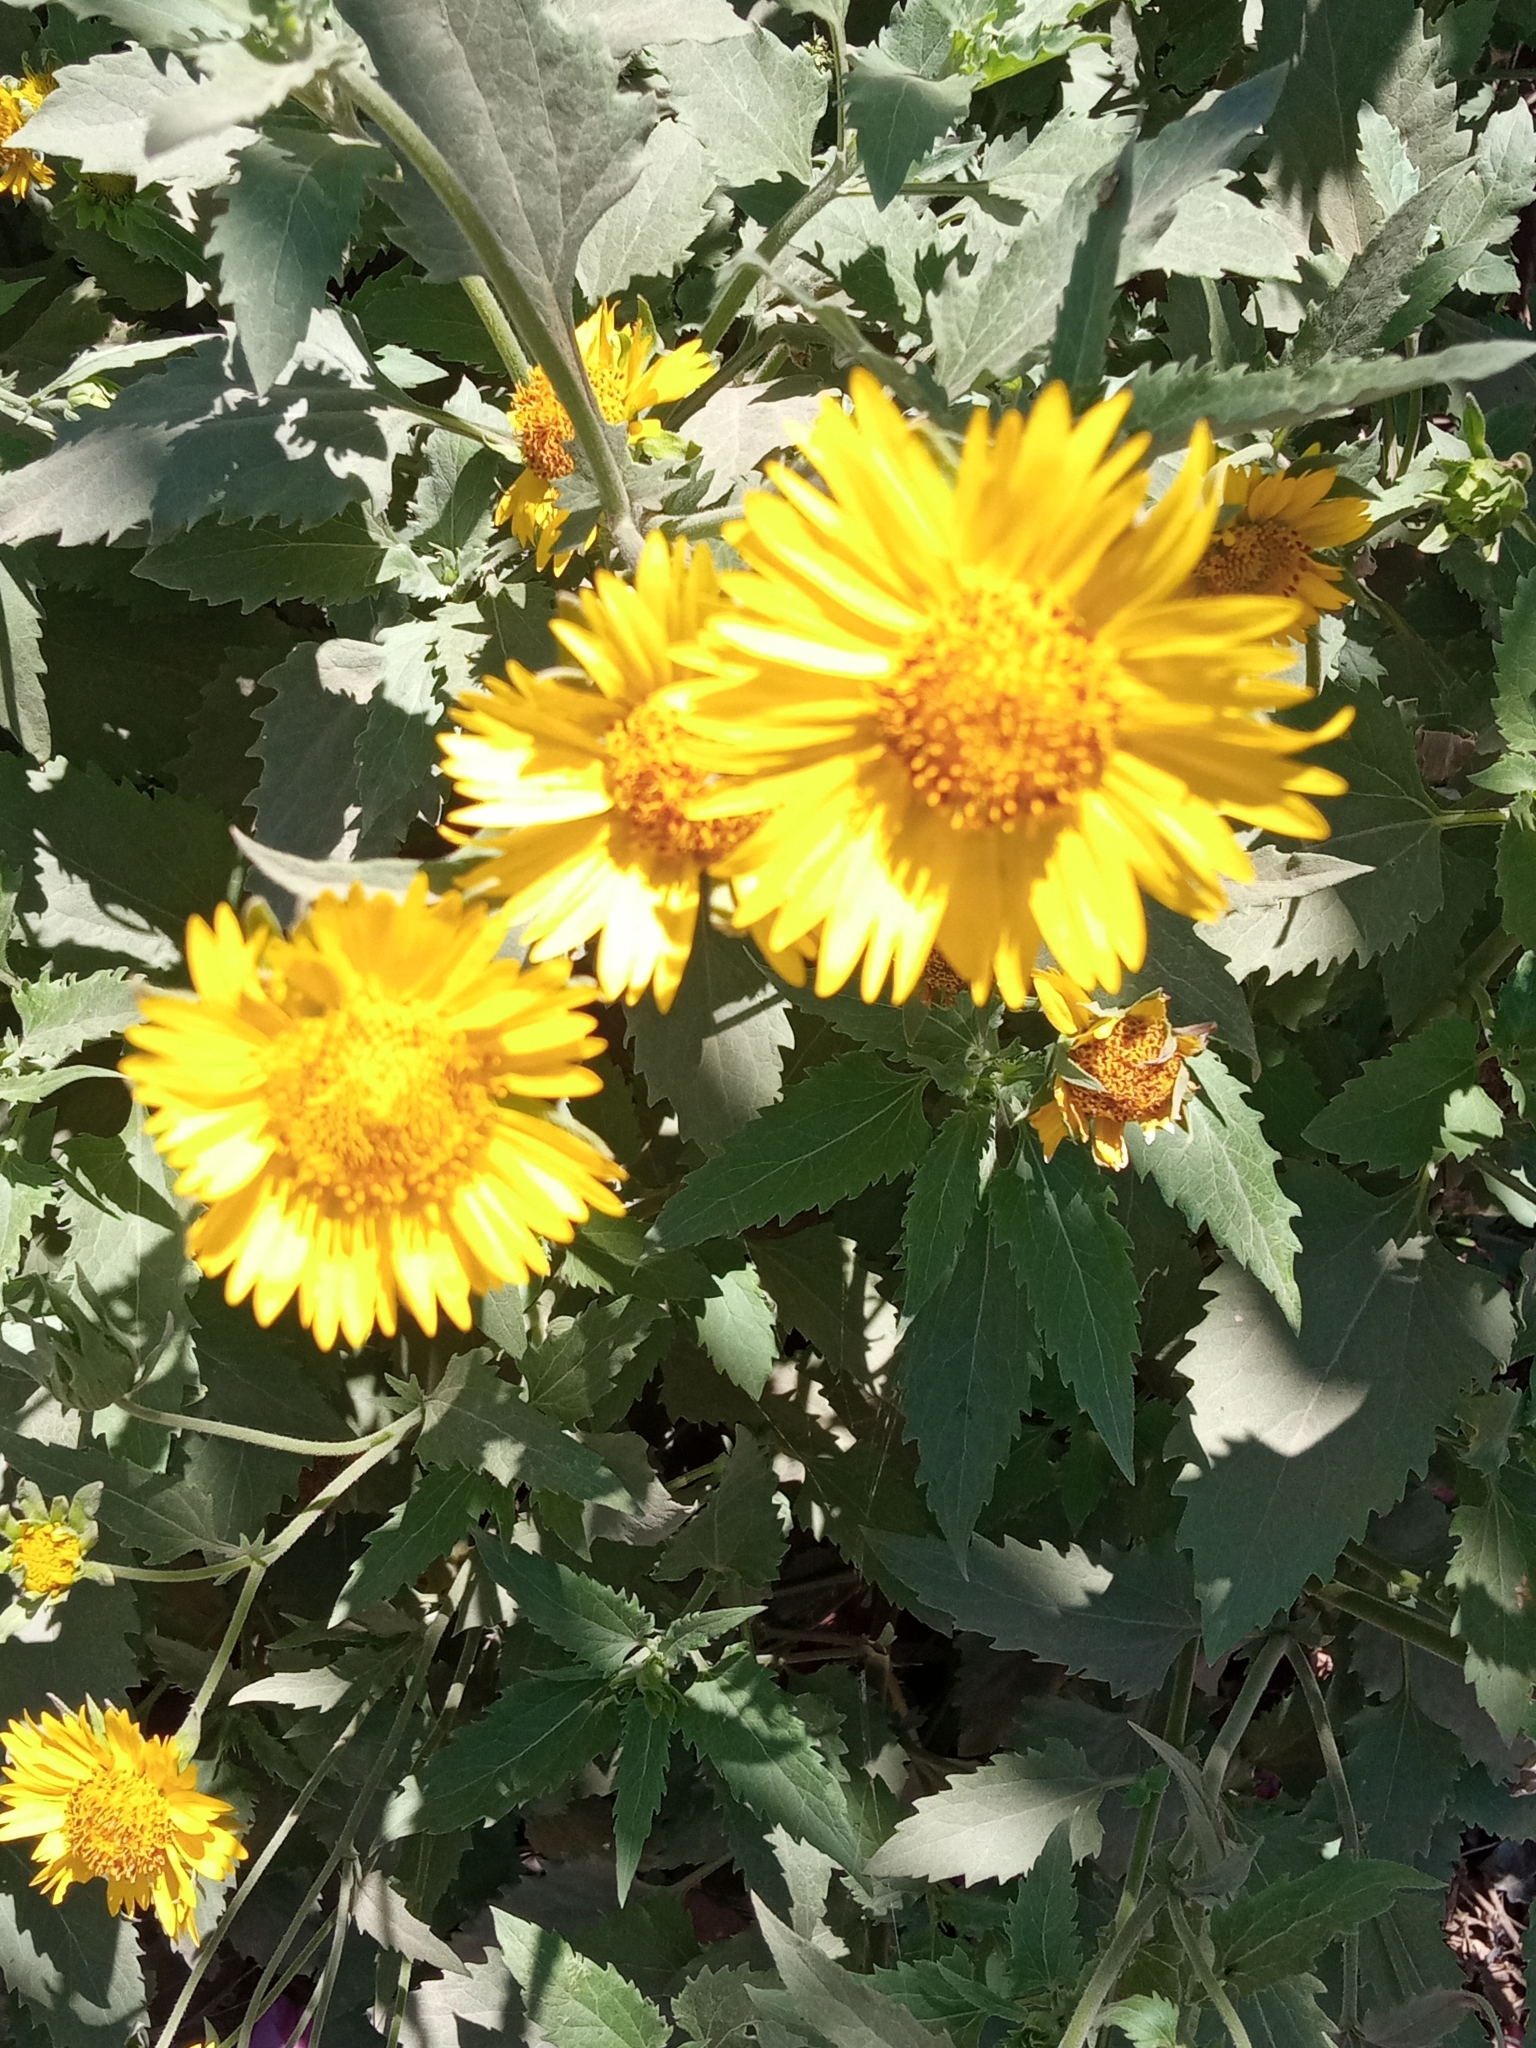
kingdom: Plantae
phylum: Tracheophyta
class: Magnoliopsida
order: Asterales
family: Asteraceae
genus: Verbesina
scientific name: Verbesina encelioides
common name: Golden crownbeard
